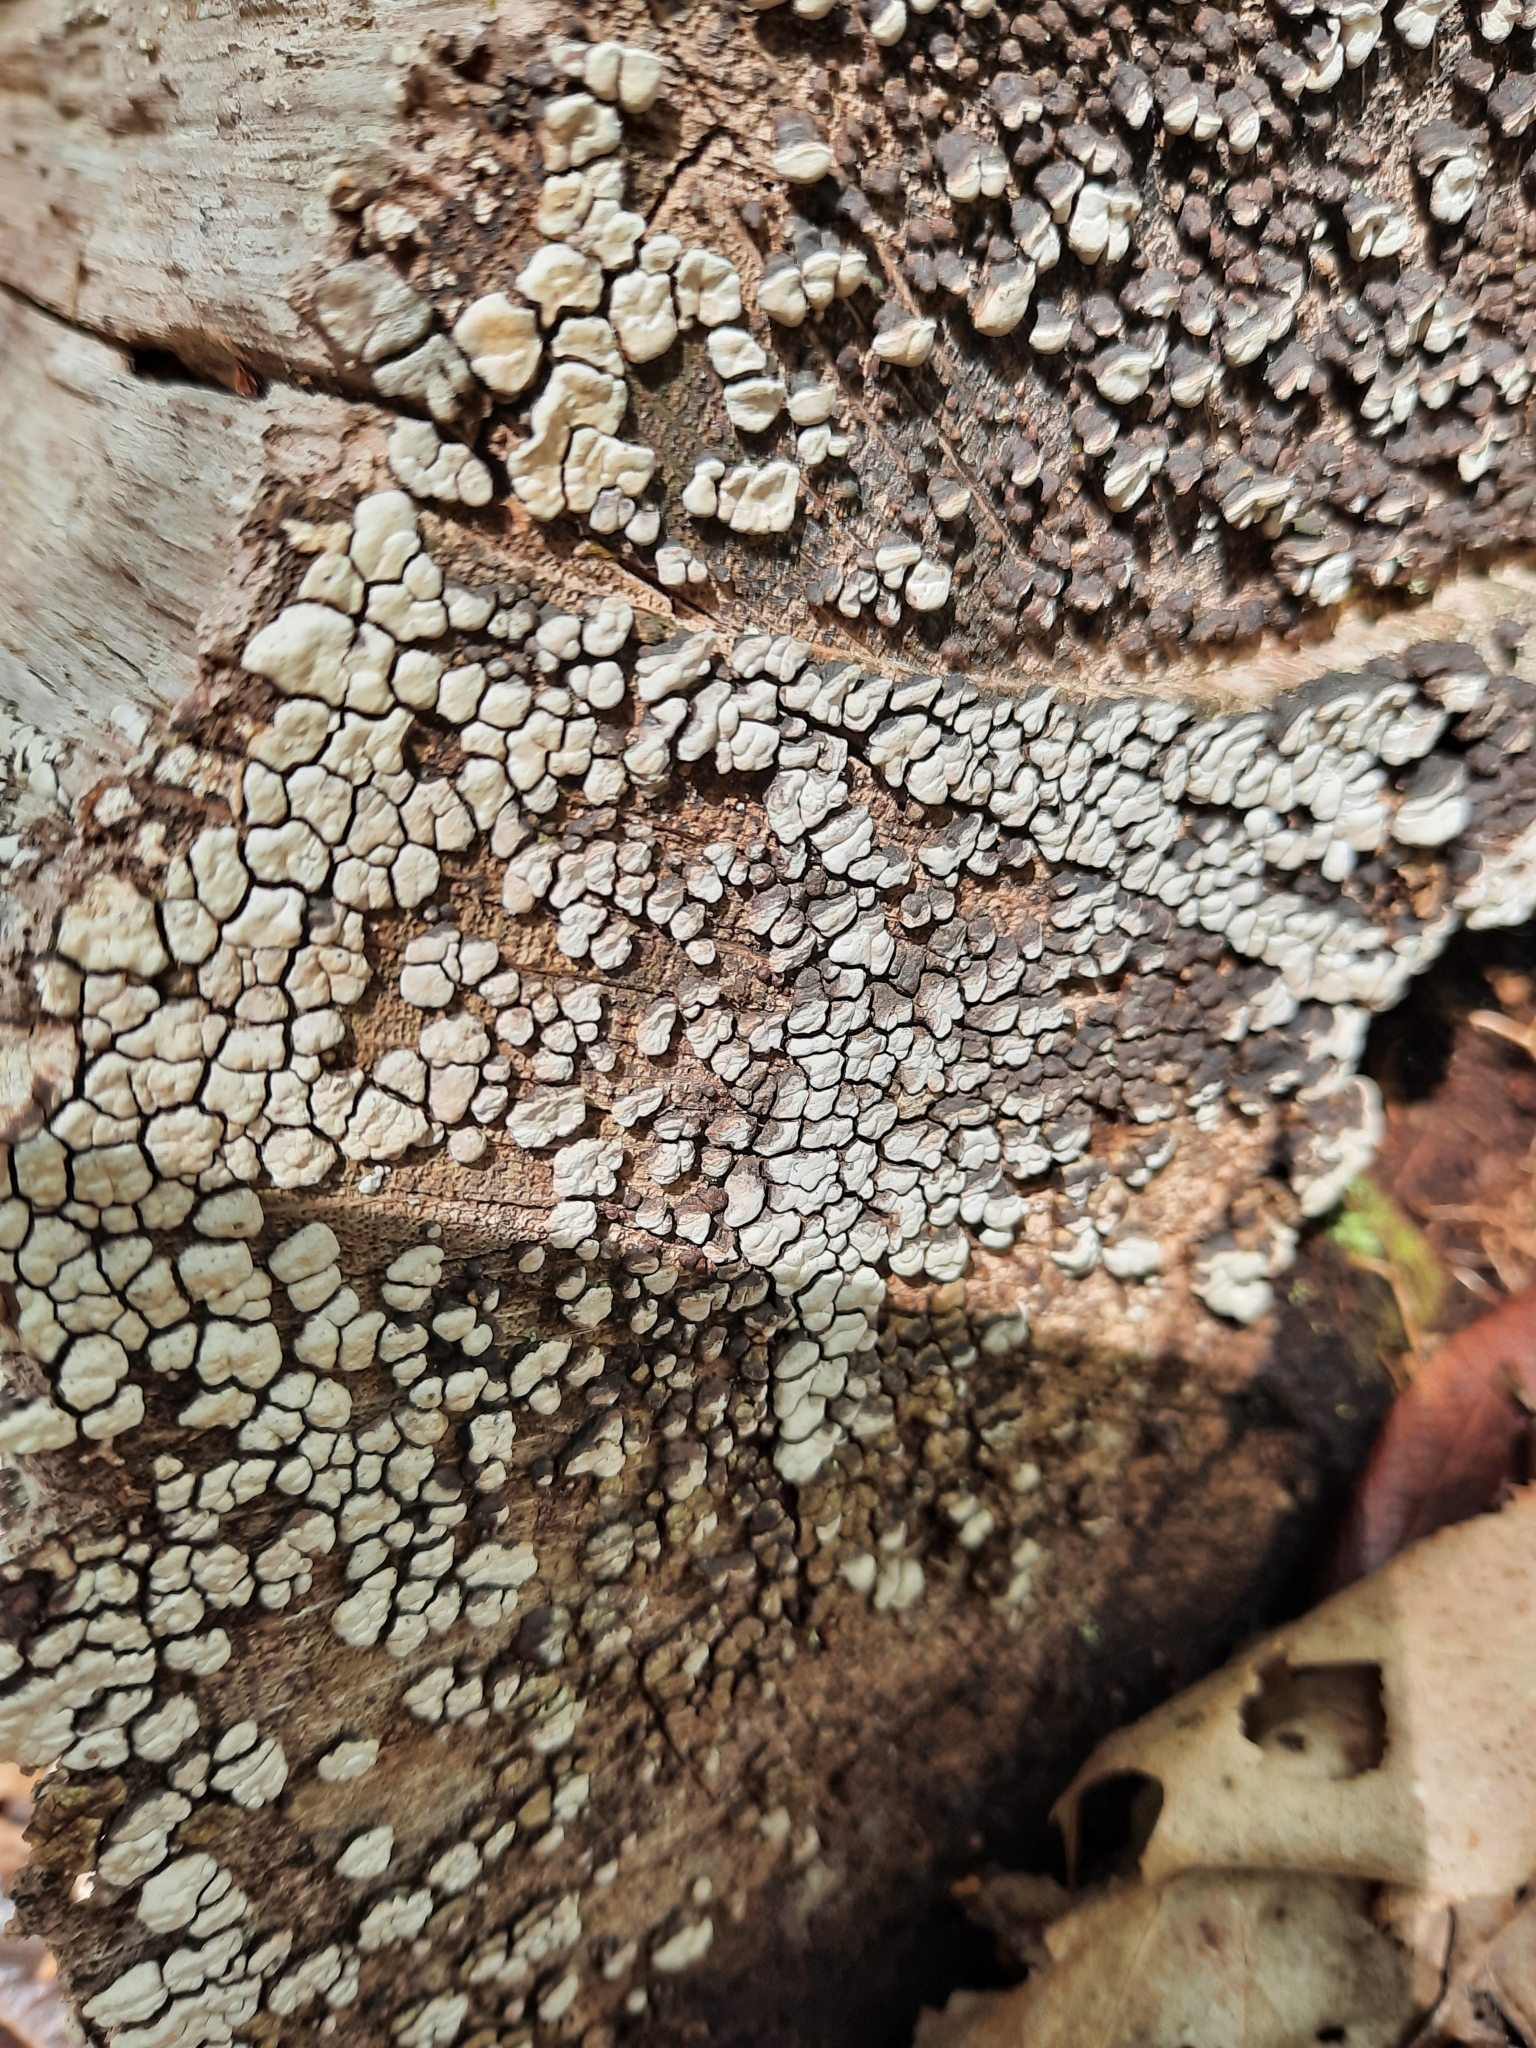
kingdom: Fungi
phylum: Basidiomycota
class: Agaricomycetes
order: Russulales
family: Stereaceae
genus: Xylobolus
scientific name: Xylobolus frustulatus
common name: Ceramic parchment
